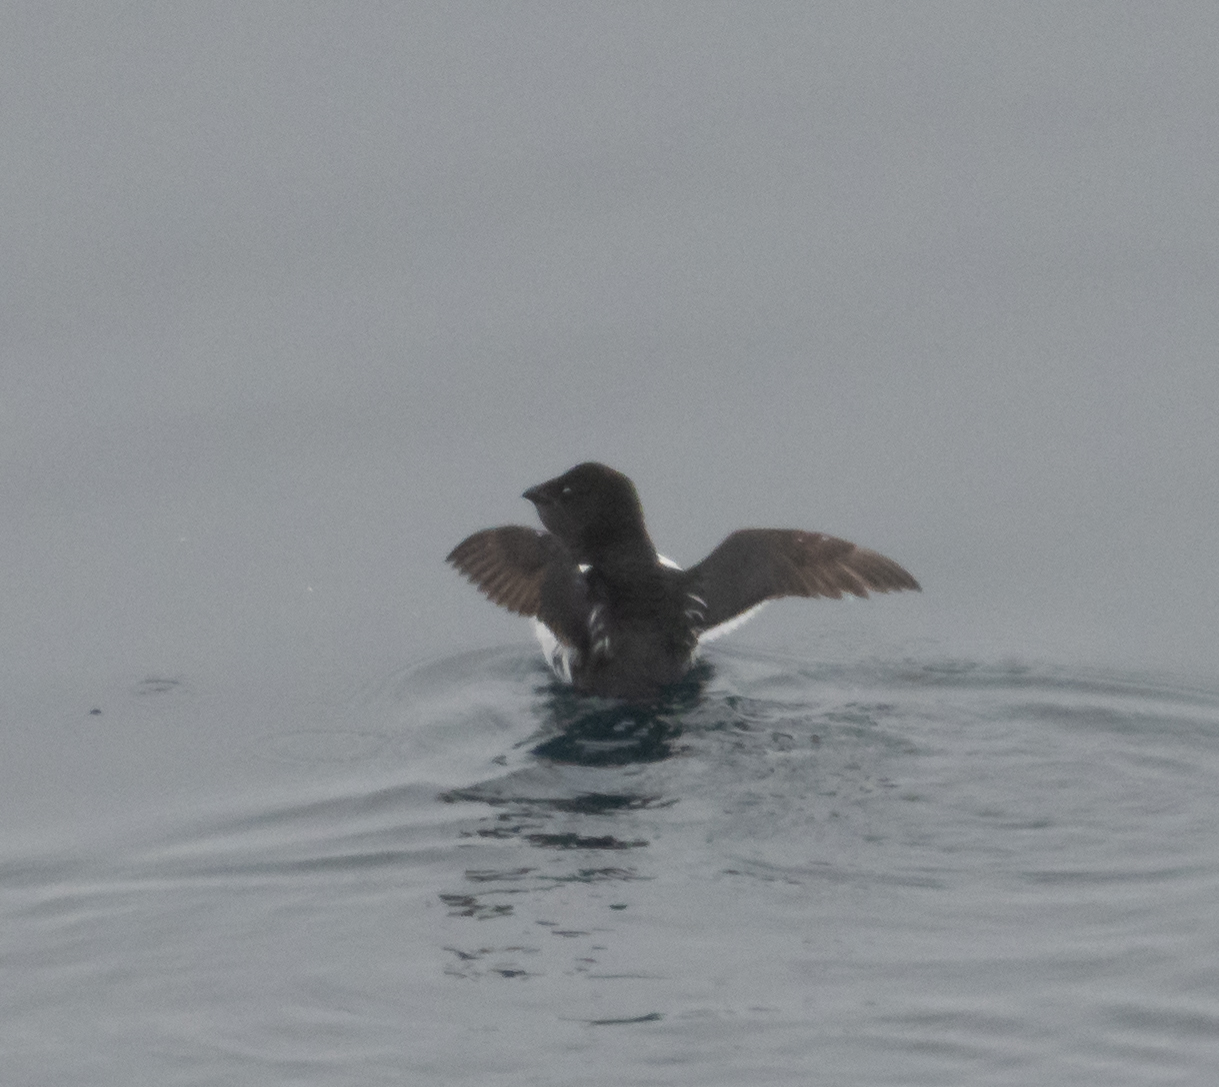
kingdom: Animalia
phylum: Chordata
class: Aves
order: Charadriiformes
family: Alcidae
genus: Alle
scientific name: Alle alle
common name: Little auk
